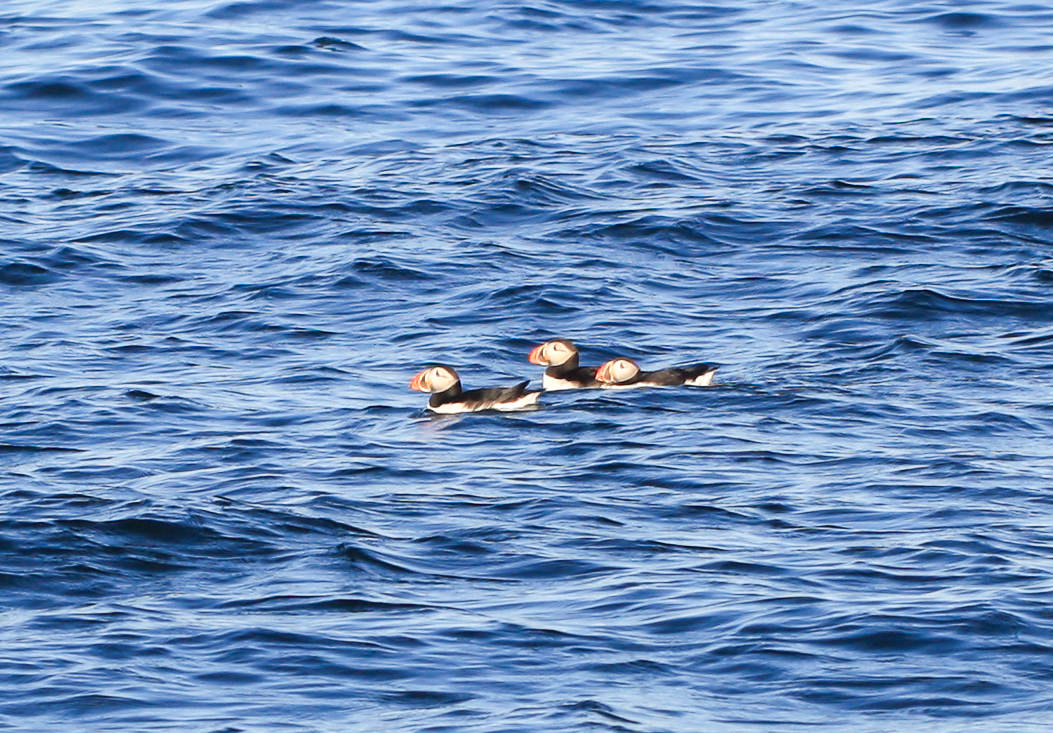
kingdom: Animalia
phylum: Chordata
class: Aves
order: Charadriiformes
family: Alcidae
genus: Fratercula
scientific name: Fratercula arctica
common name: Atlantic puffin
